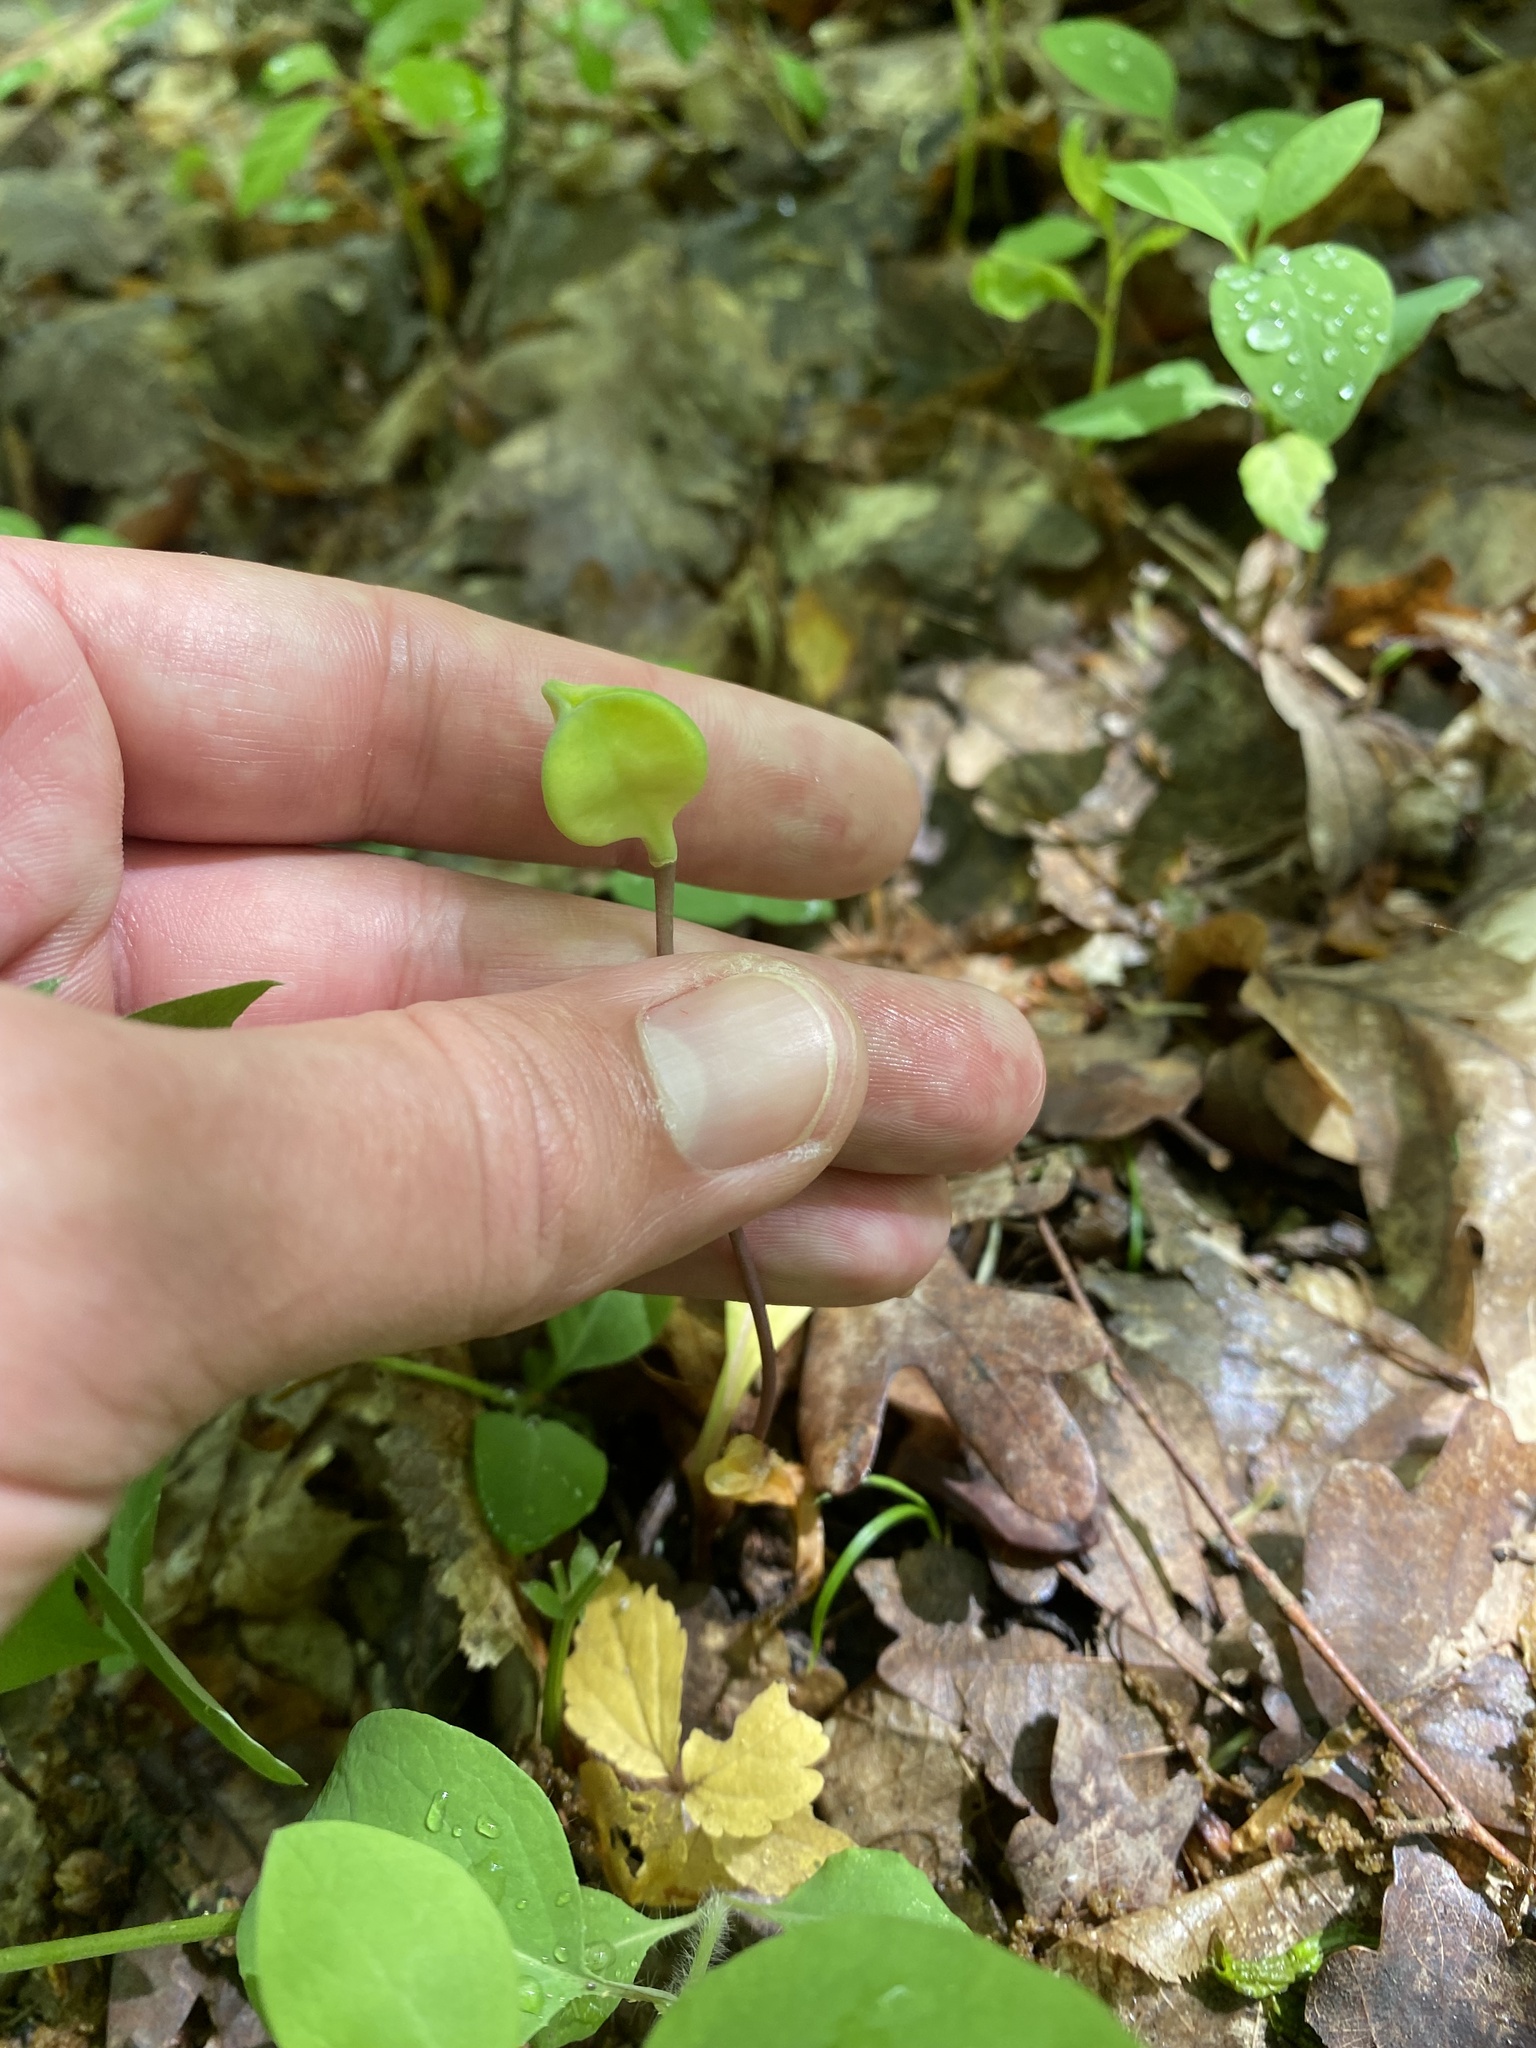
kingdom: Plantae
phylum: Tracheophyta
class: Liliopsida
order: Liliales
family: Liliaceae
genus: Erythronium
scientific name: Erythronium caucasicum
